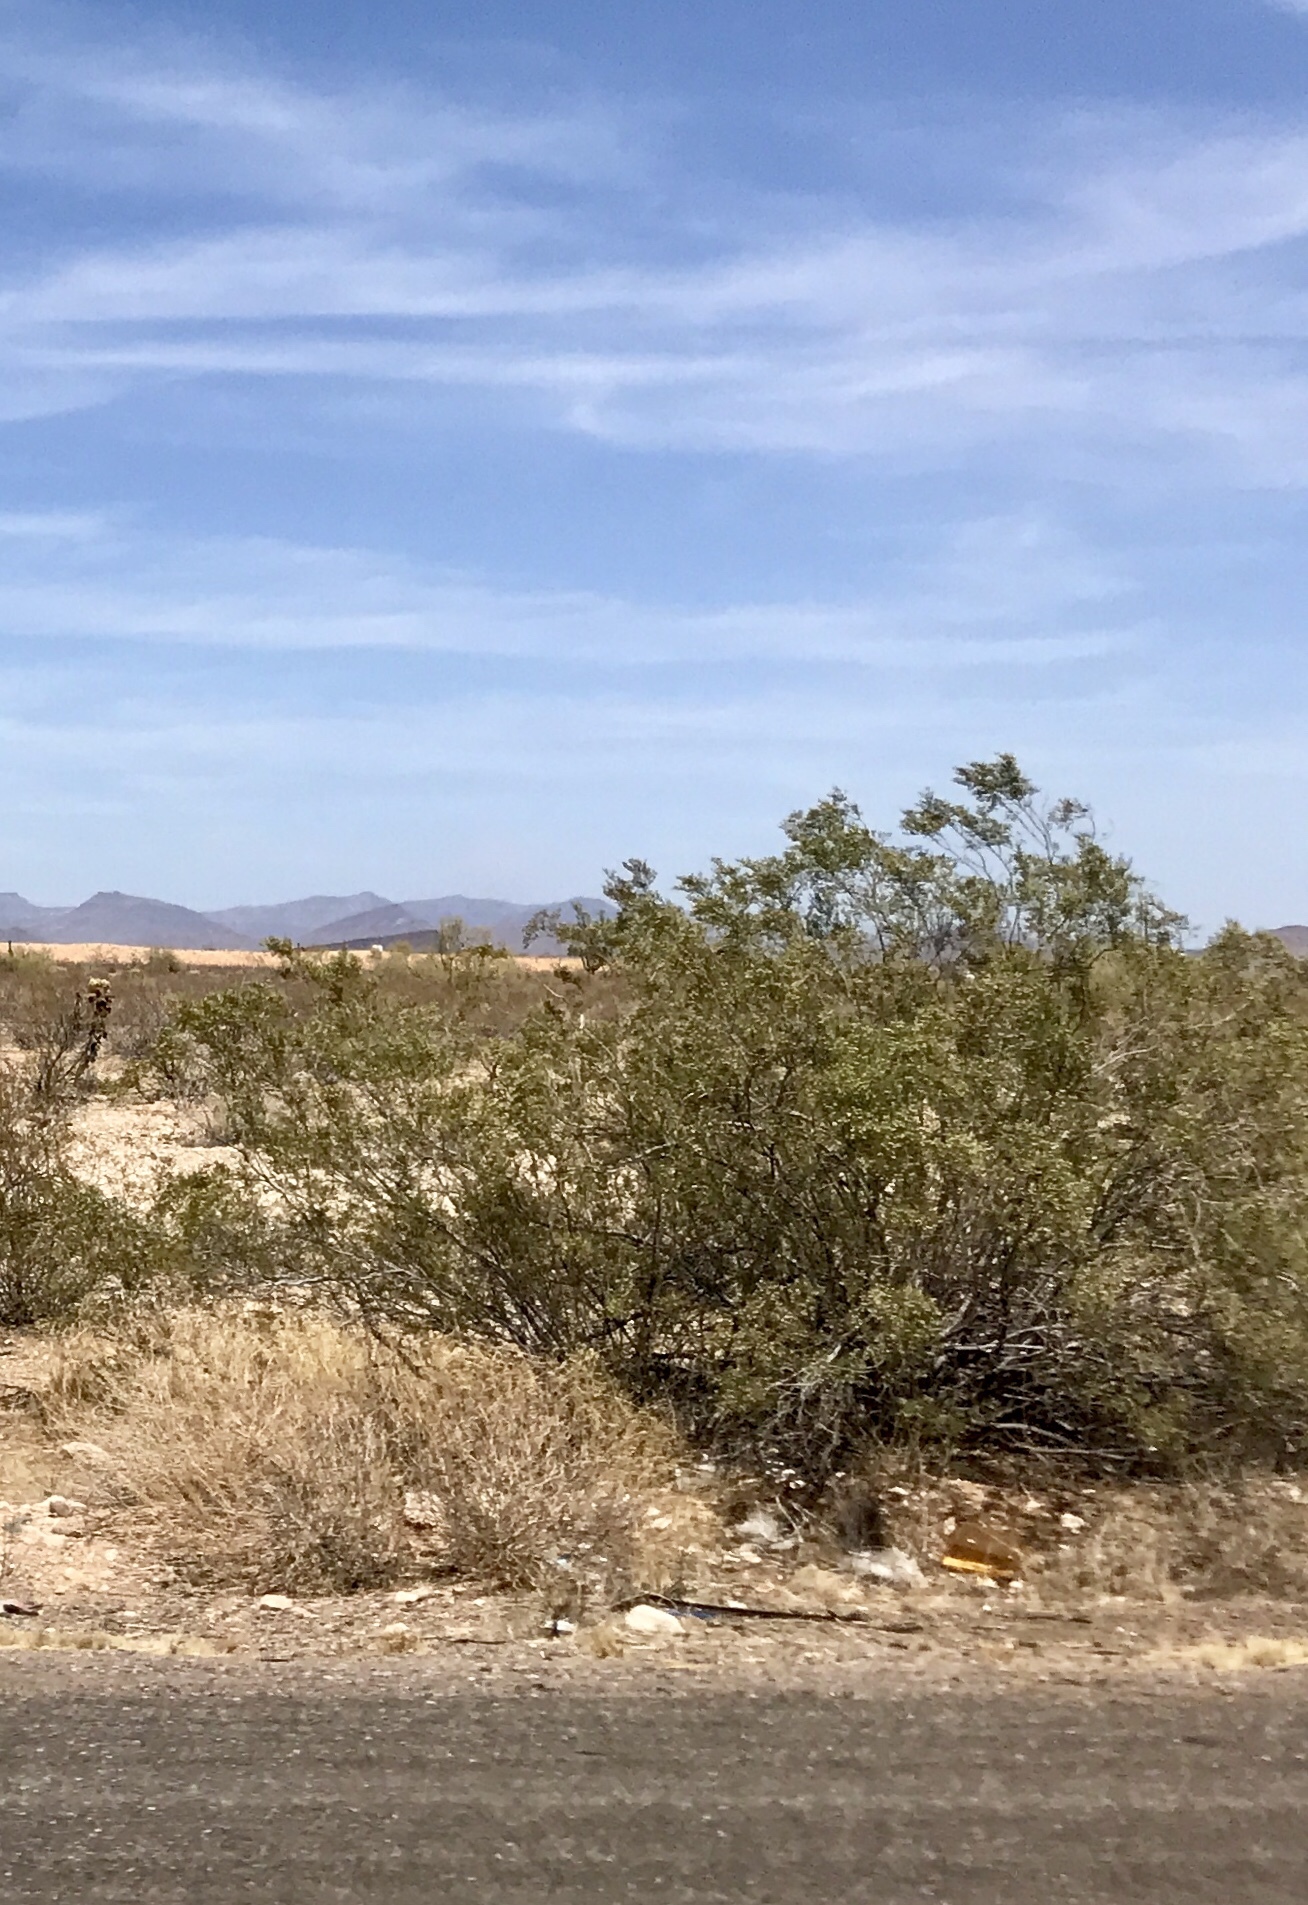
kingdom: Plantae
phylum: Tracheophyta
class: Magnoliopsida
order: Zygophyllales
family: Zygophyllaceae
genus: Larrea
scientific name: Larrea tridentata
